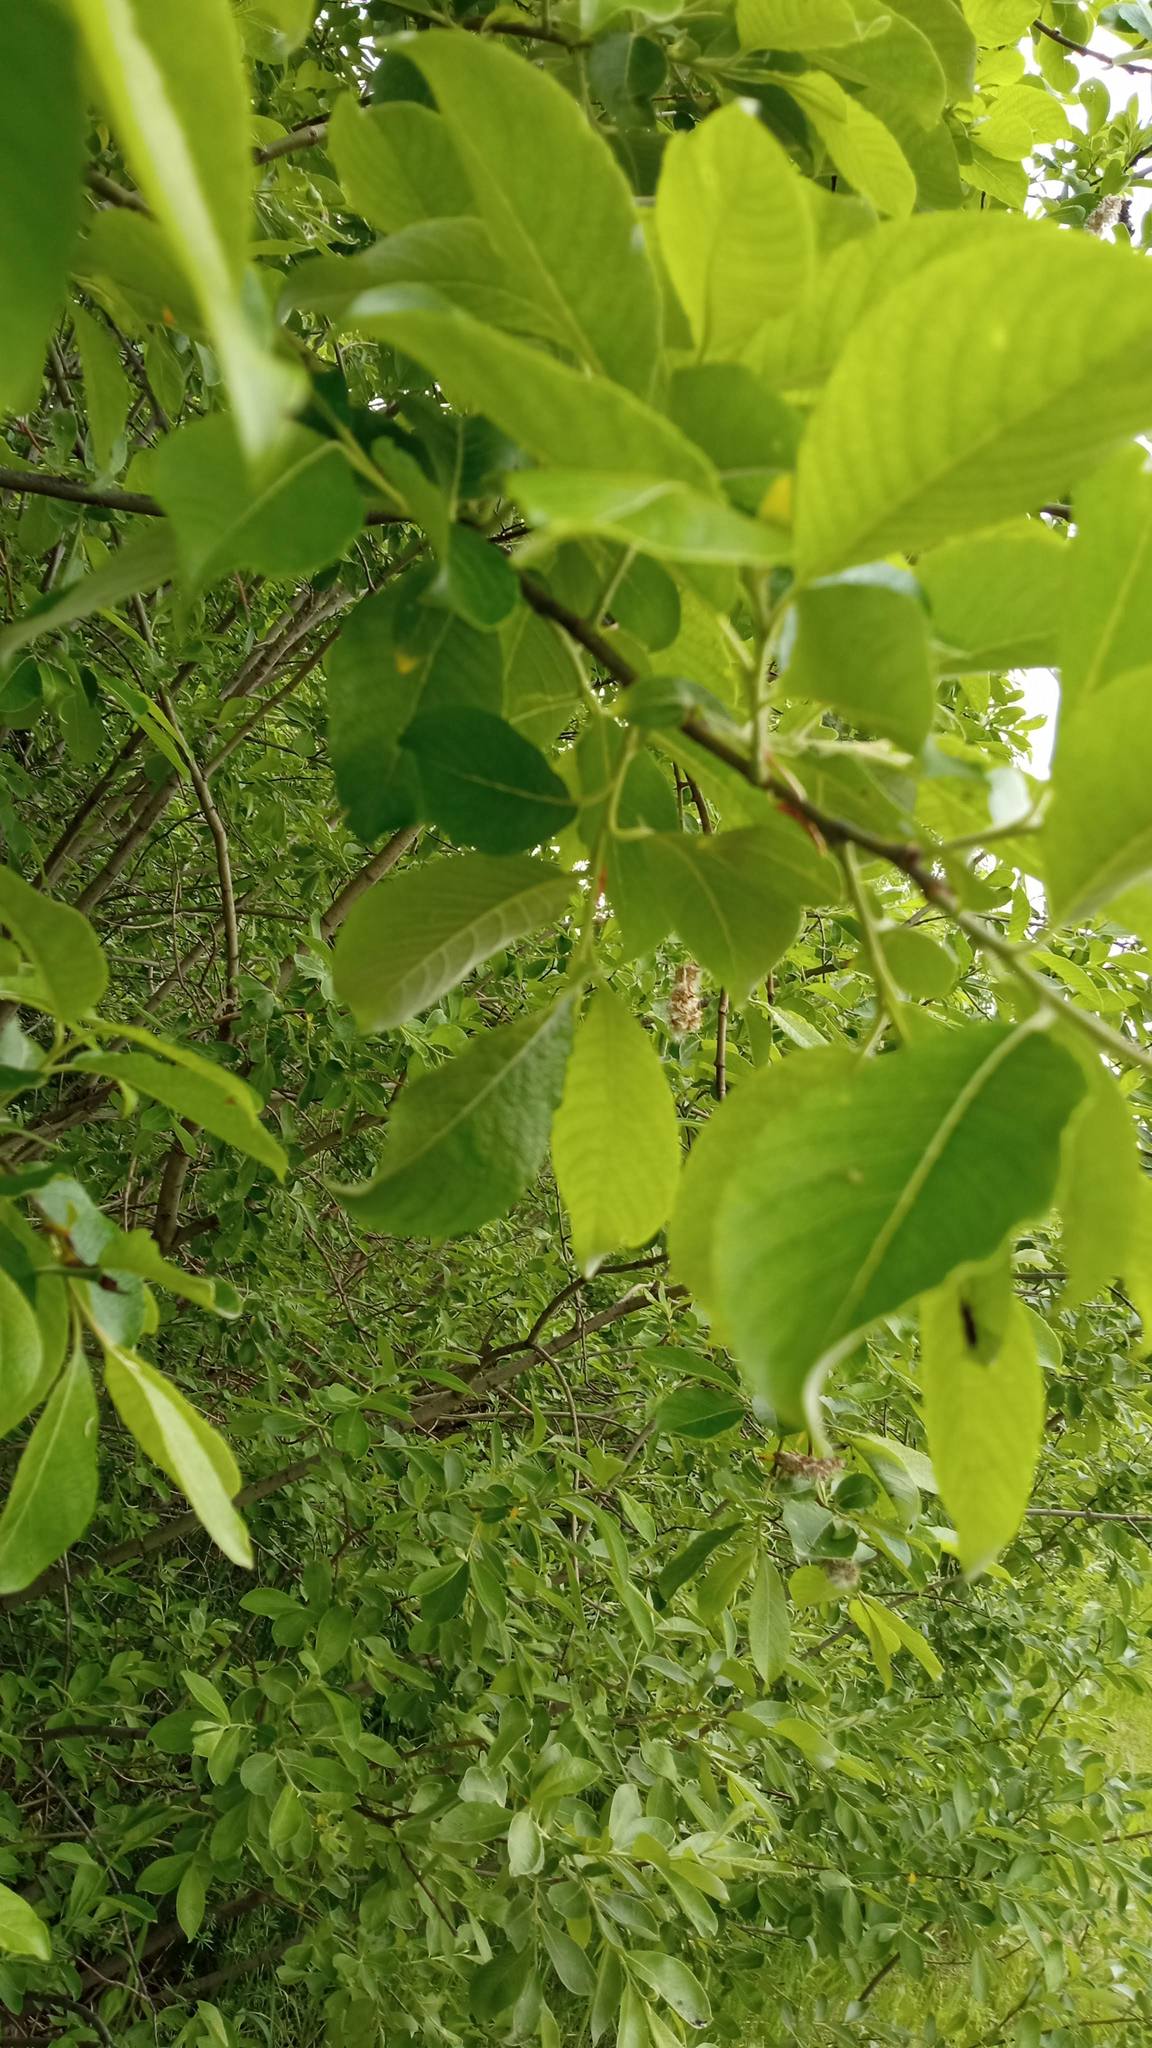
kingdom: Plantae
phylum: Tracheophyta
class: Magnoliopsida
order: Malpighiales
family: Salicaceae
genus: Salix
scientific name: Salix caprea
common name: Goat willow
